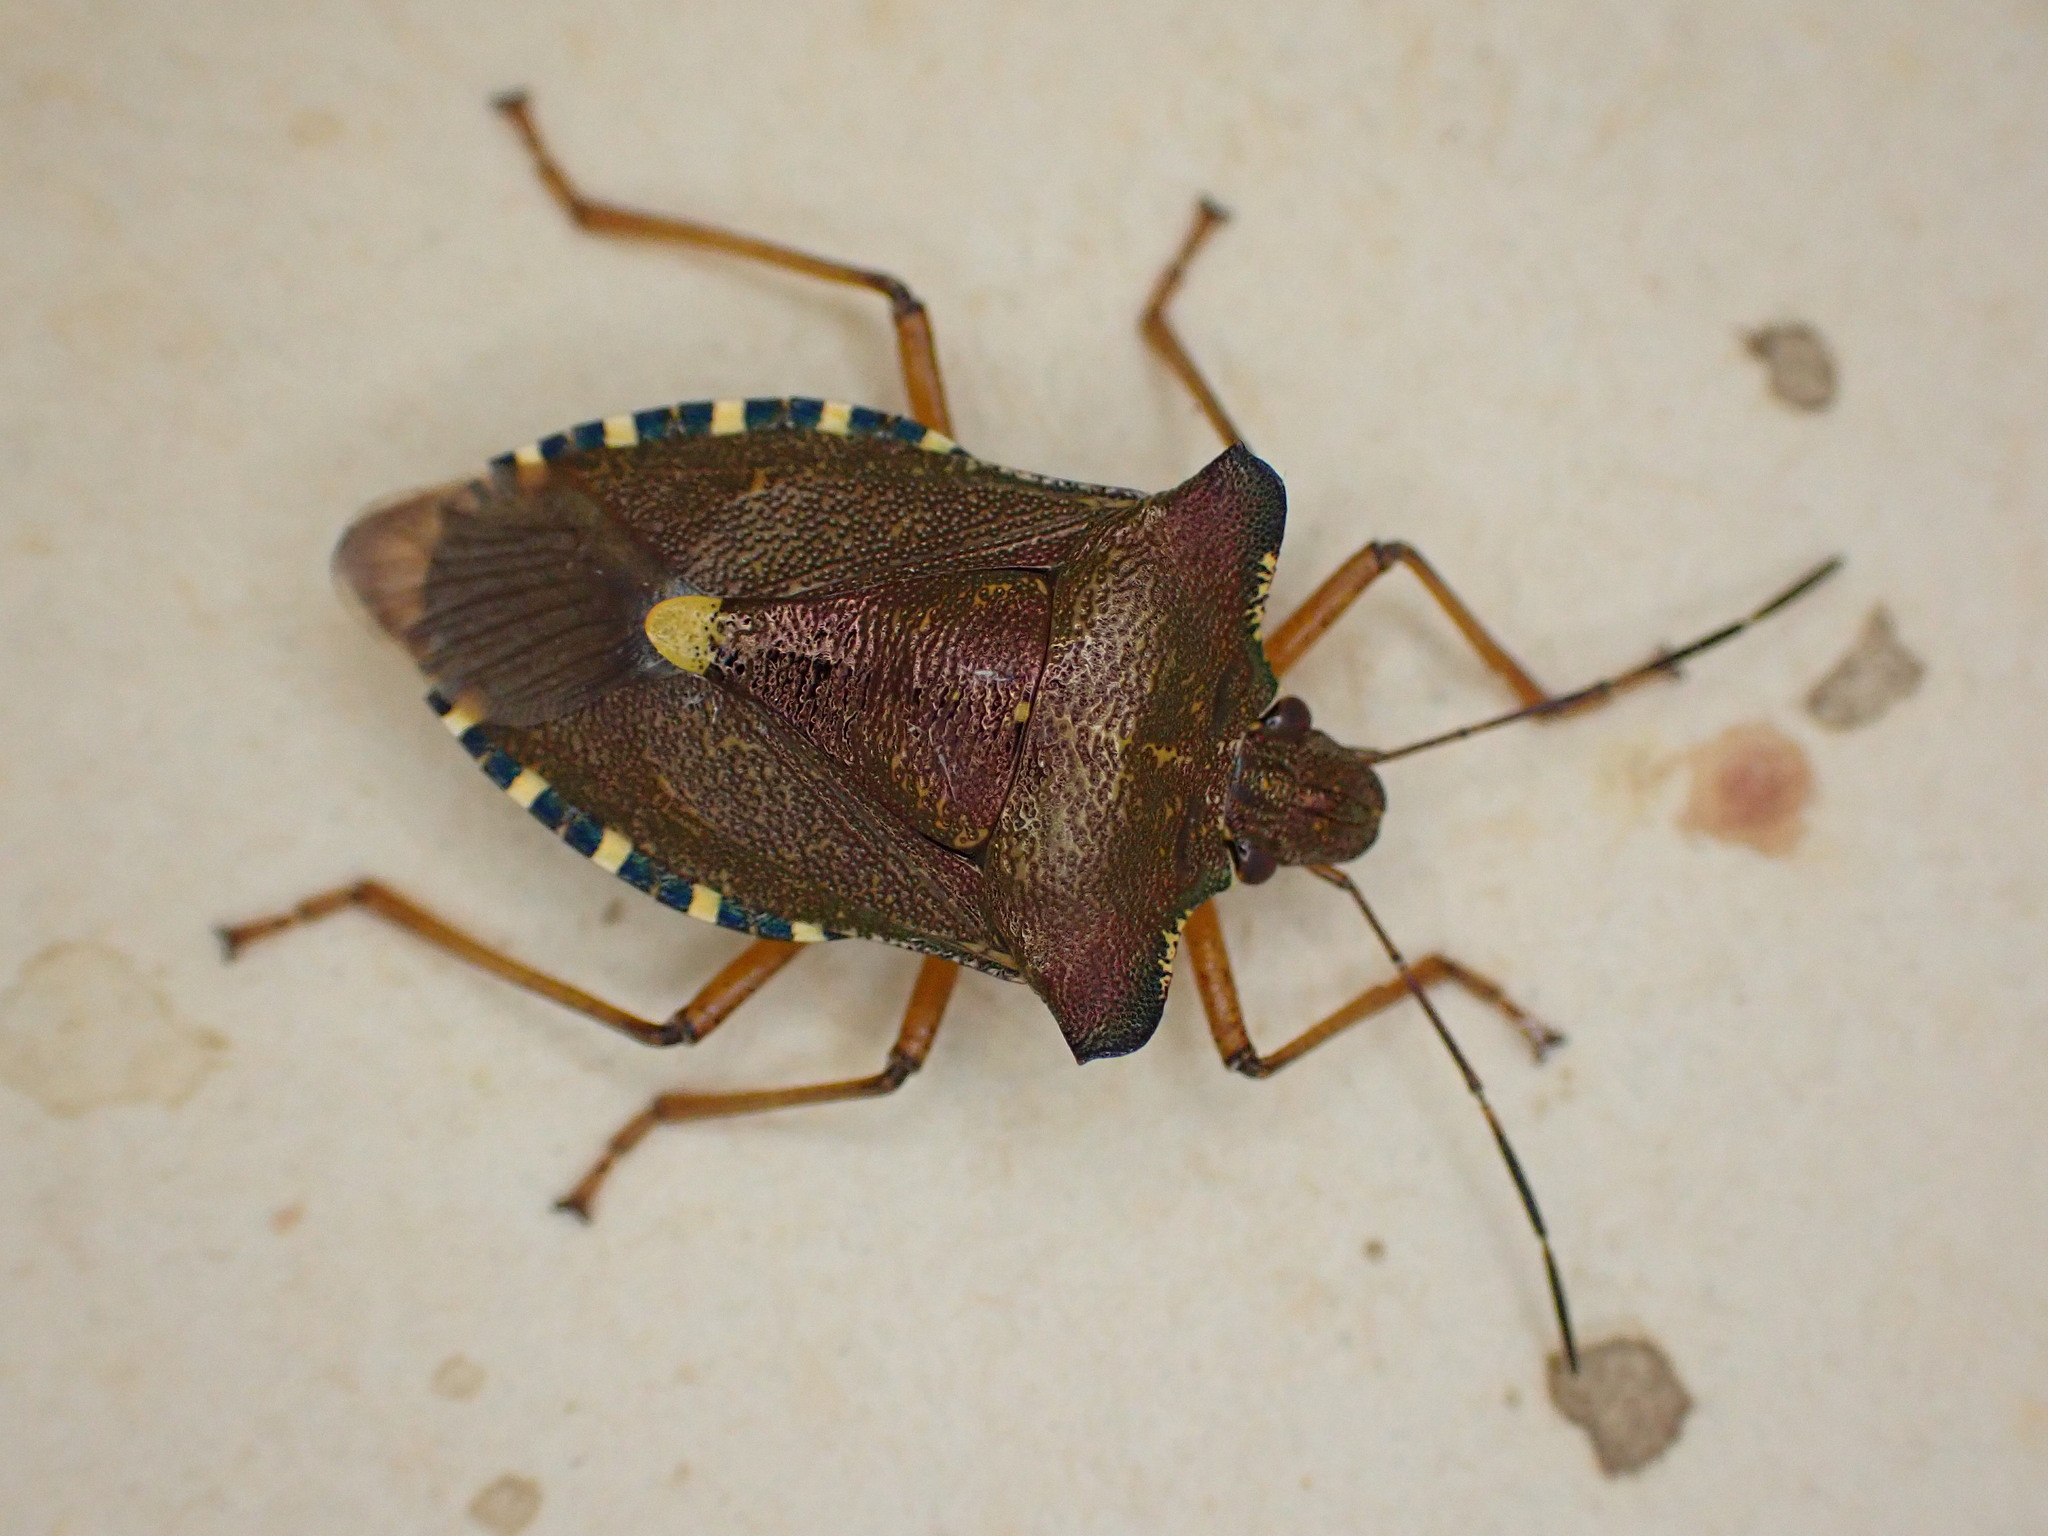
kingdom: Animalia
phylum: Arthropoda
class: Insecta
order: Hemiptera
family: Pentatomidae
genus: Pentatoma
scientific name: Pentatoma rufipes
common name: Forest bug
